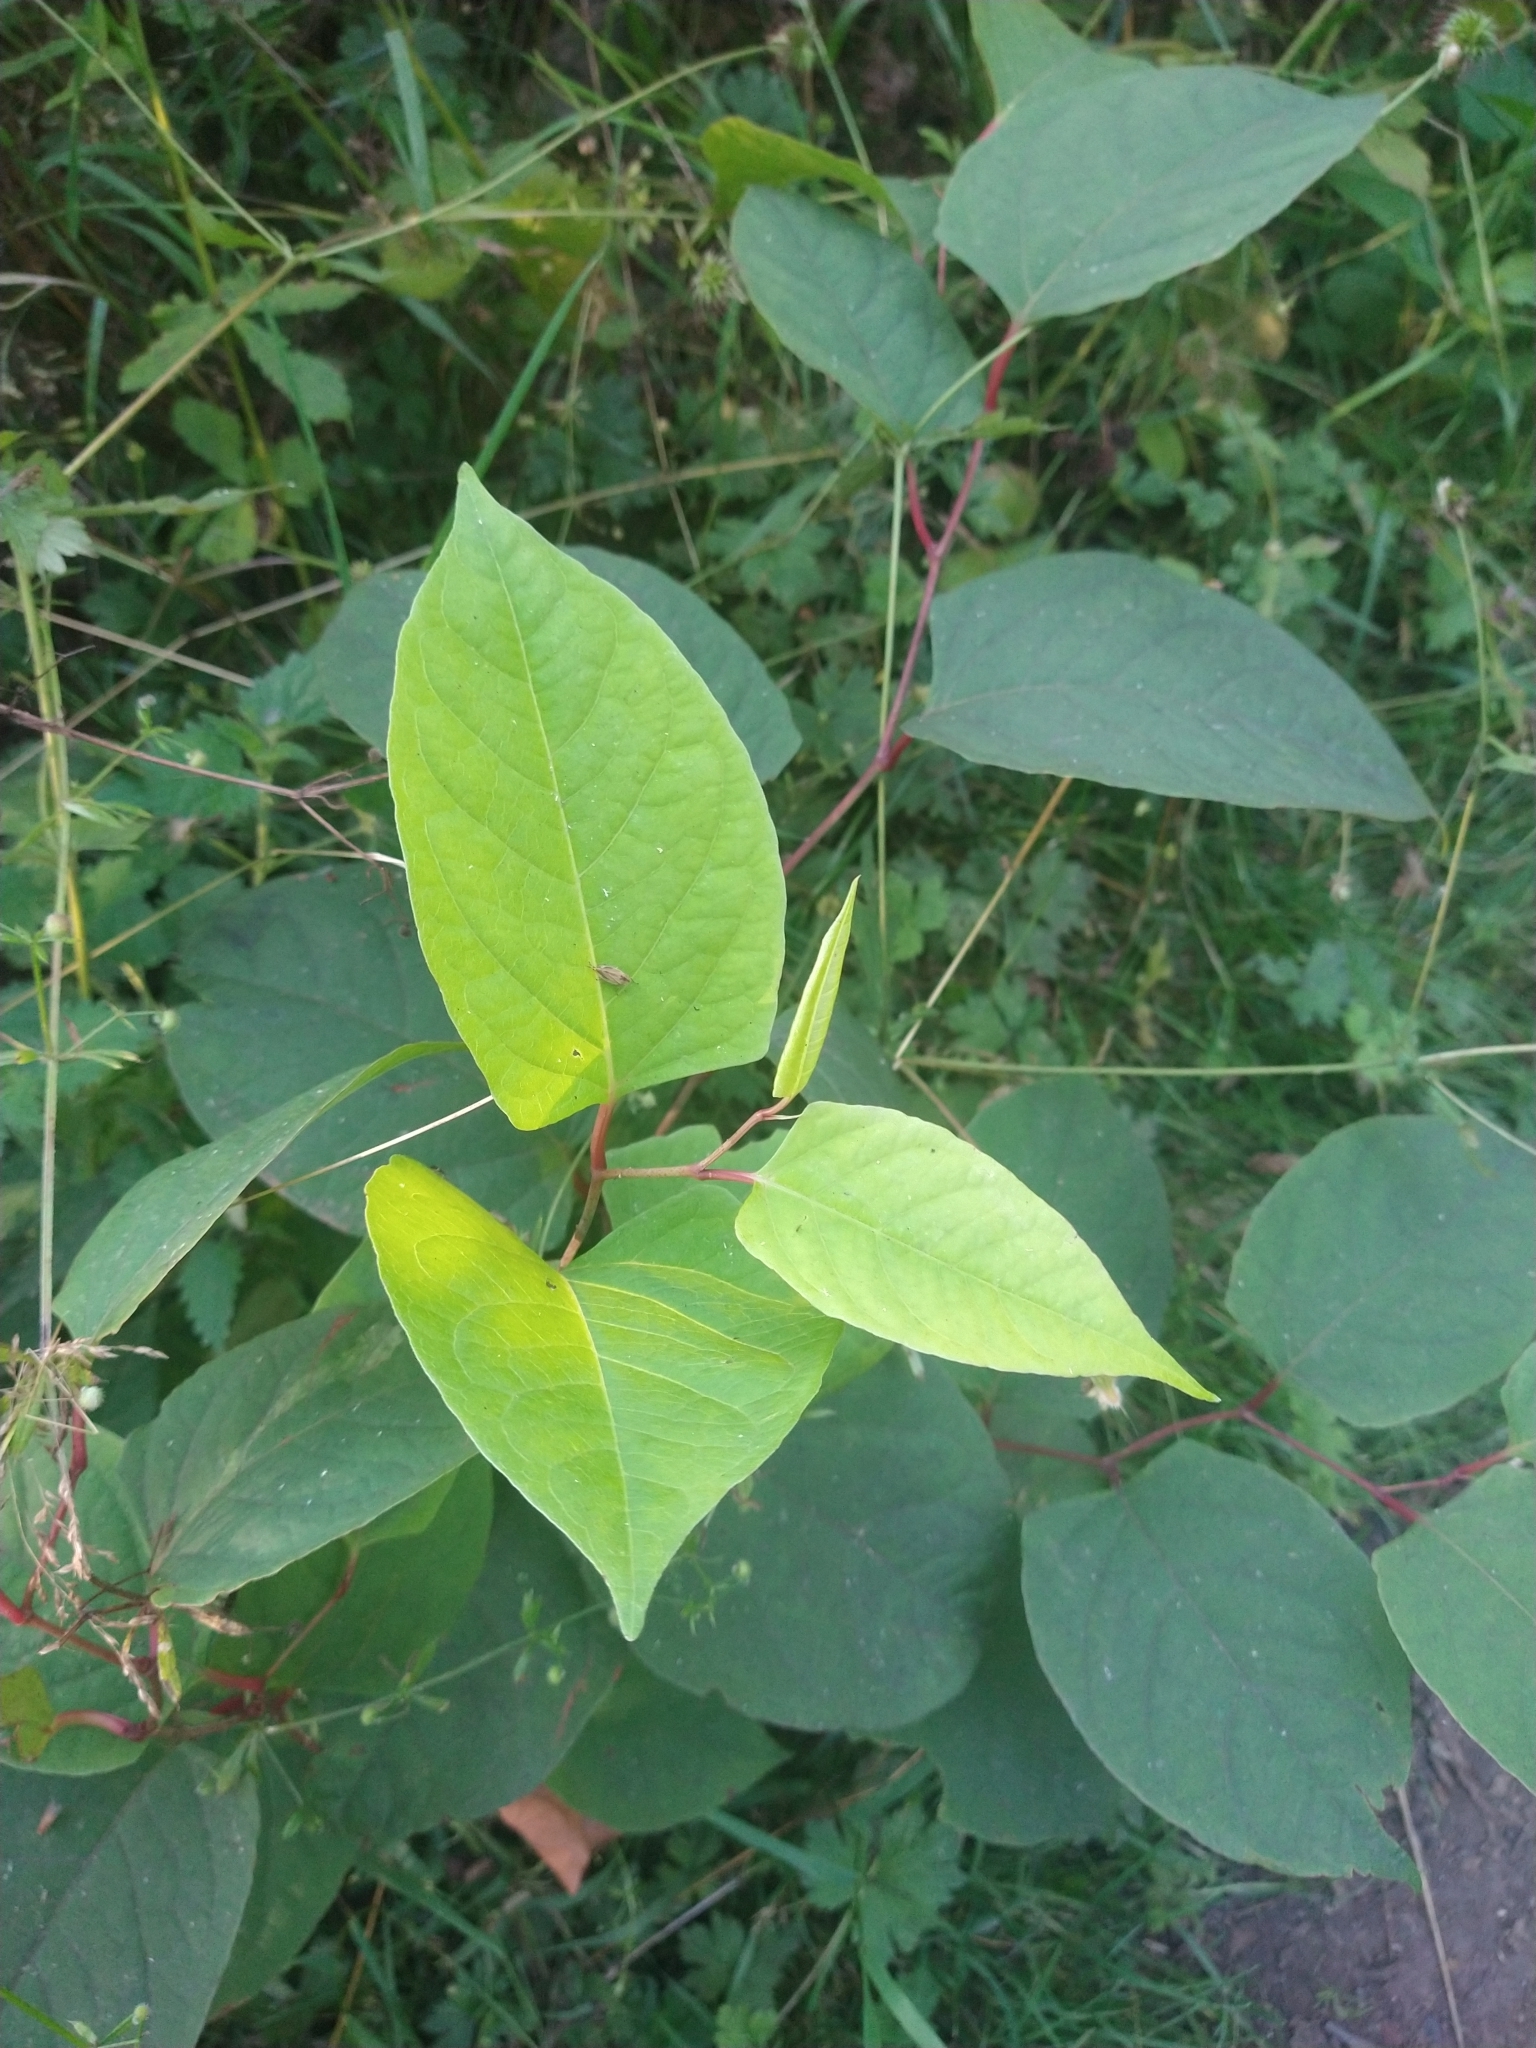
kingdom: Plantae
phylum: Tracheophyta
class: Magnoliopsida
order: Caryophyllales
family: Polygonaceae
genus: Reynoutria
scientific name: Reynoutria japonica
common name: Japanese knotweed
